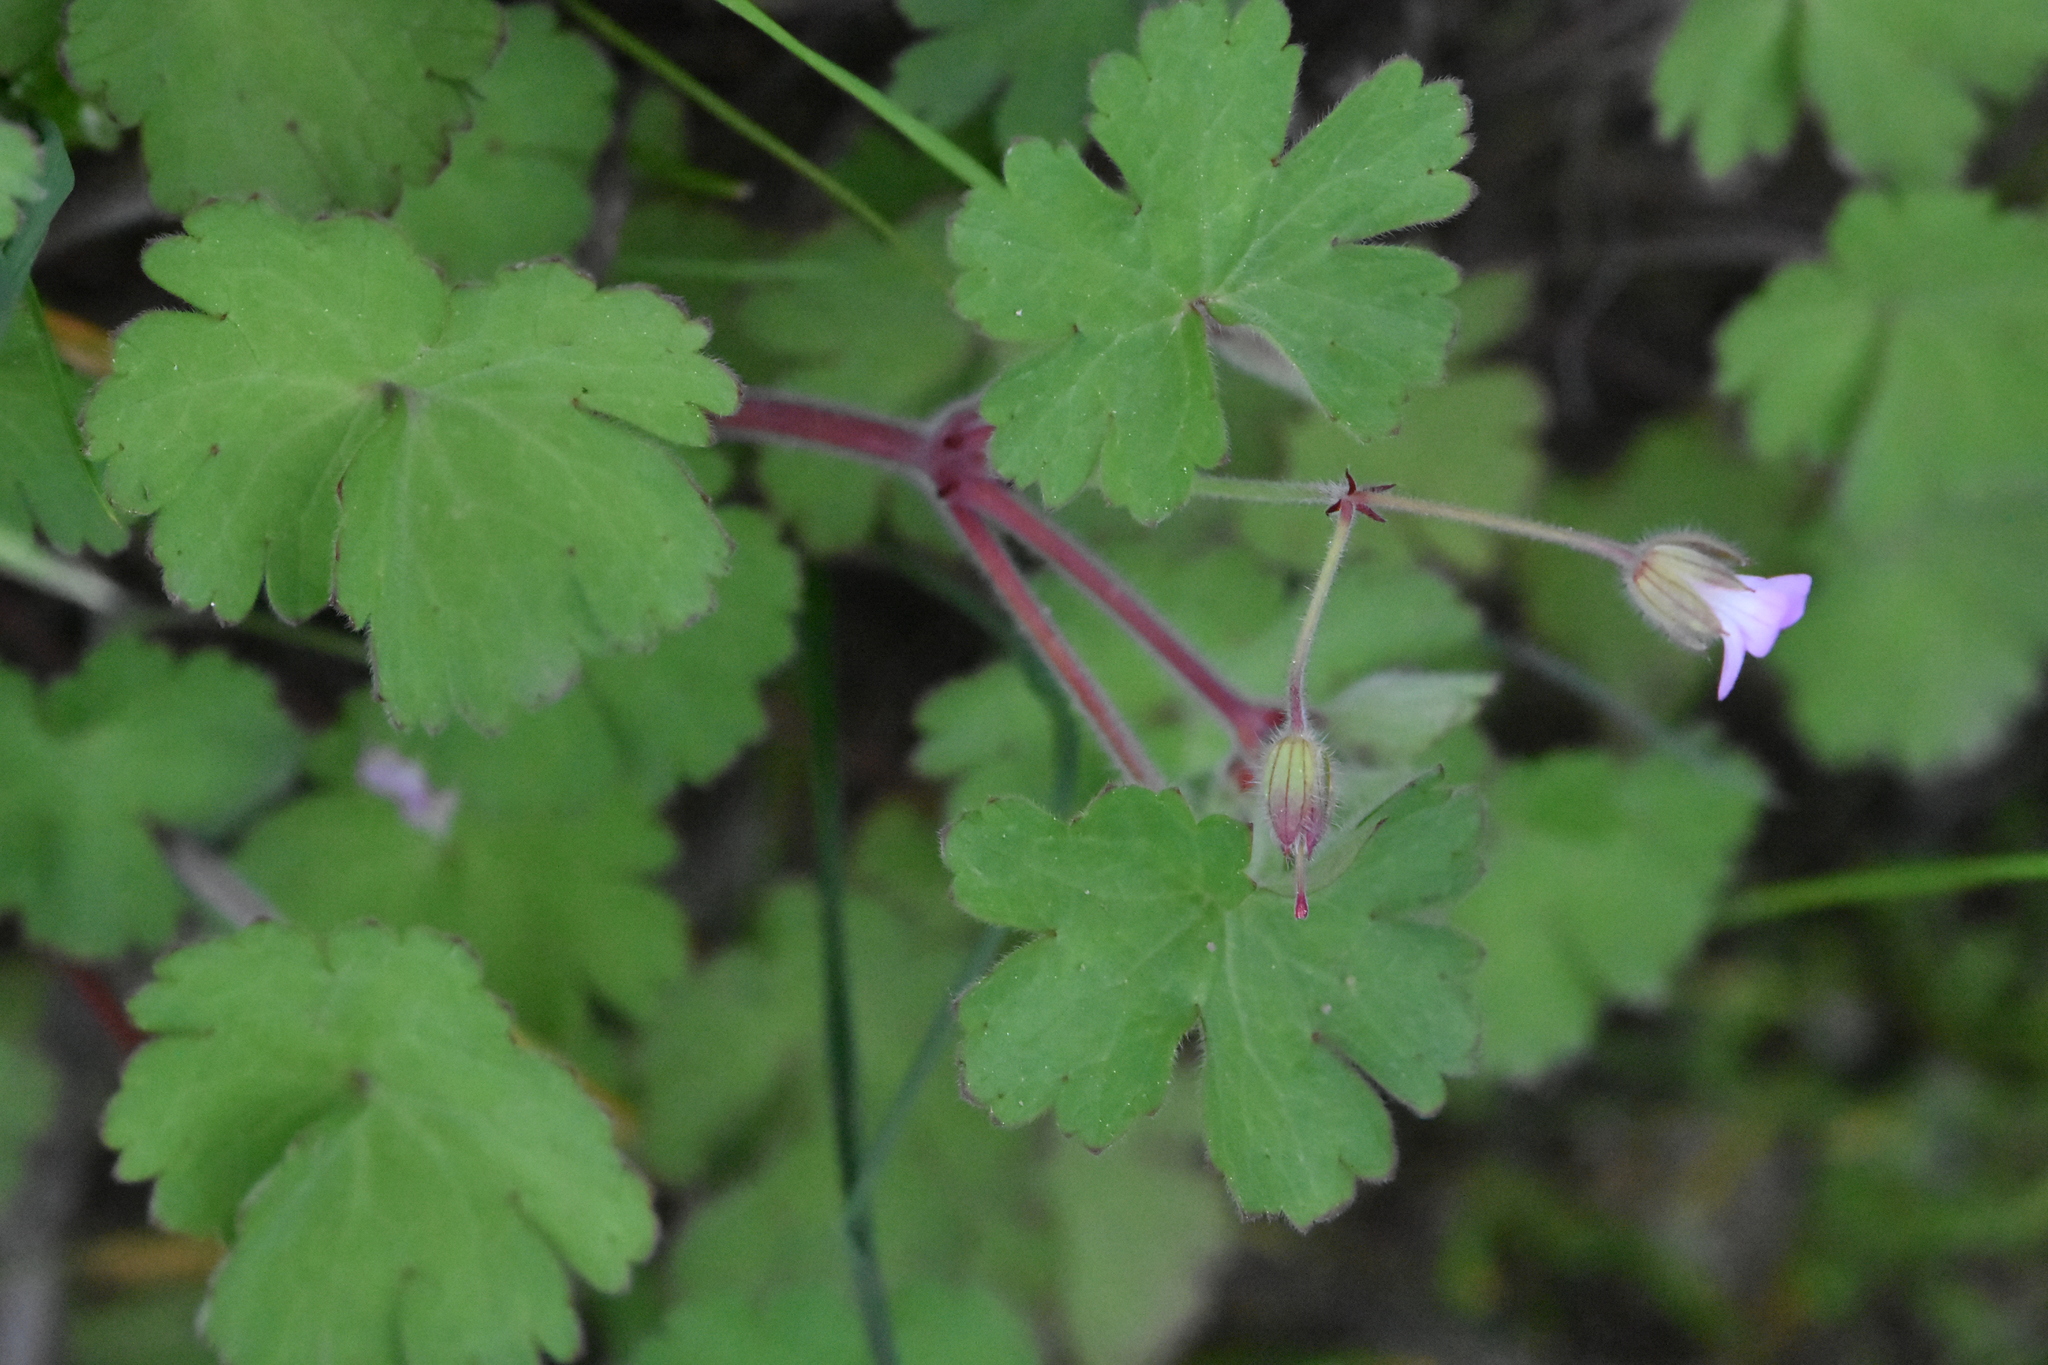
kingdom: Plantae
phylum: Tracheophyta
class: Magnoliopsida
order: Geraniales
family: Geraniaceae
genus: Geranium
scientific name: Geranium rotundifolium
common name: Round-leaved crane's-bill
